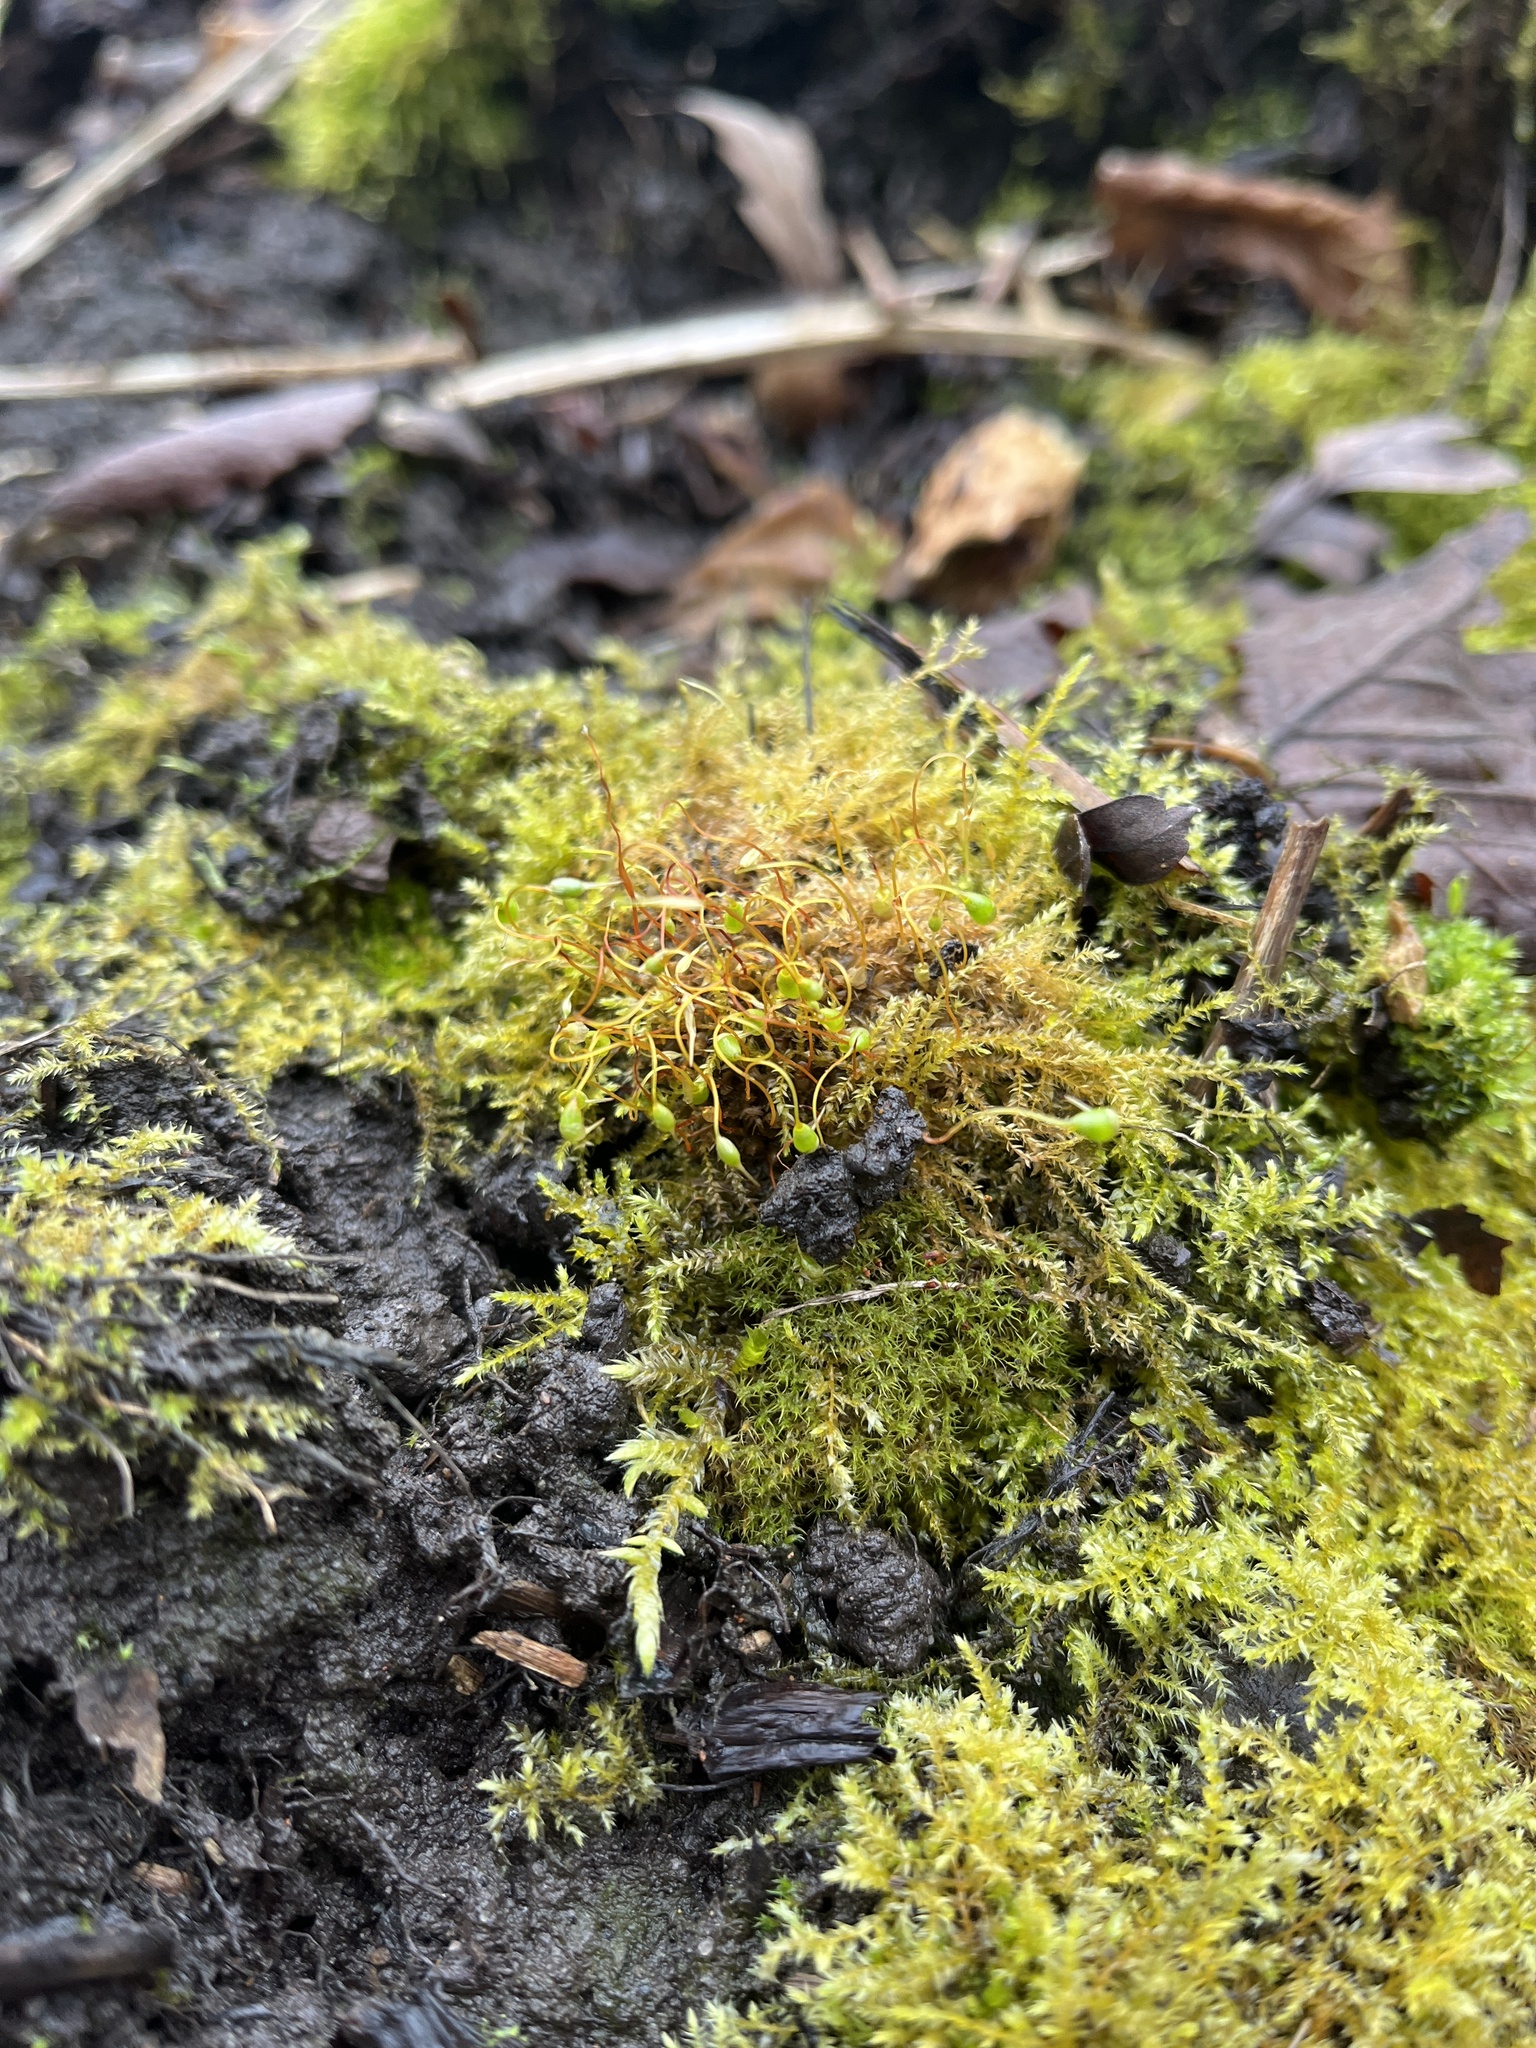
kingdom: Plantae
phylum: Bryophyta
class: Bryopsida
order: Funariales
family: Funariaceae
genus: Funaria
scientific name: Funaria hygrometrica
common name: Common cord moss
